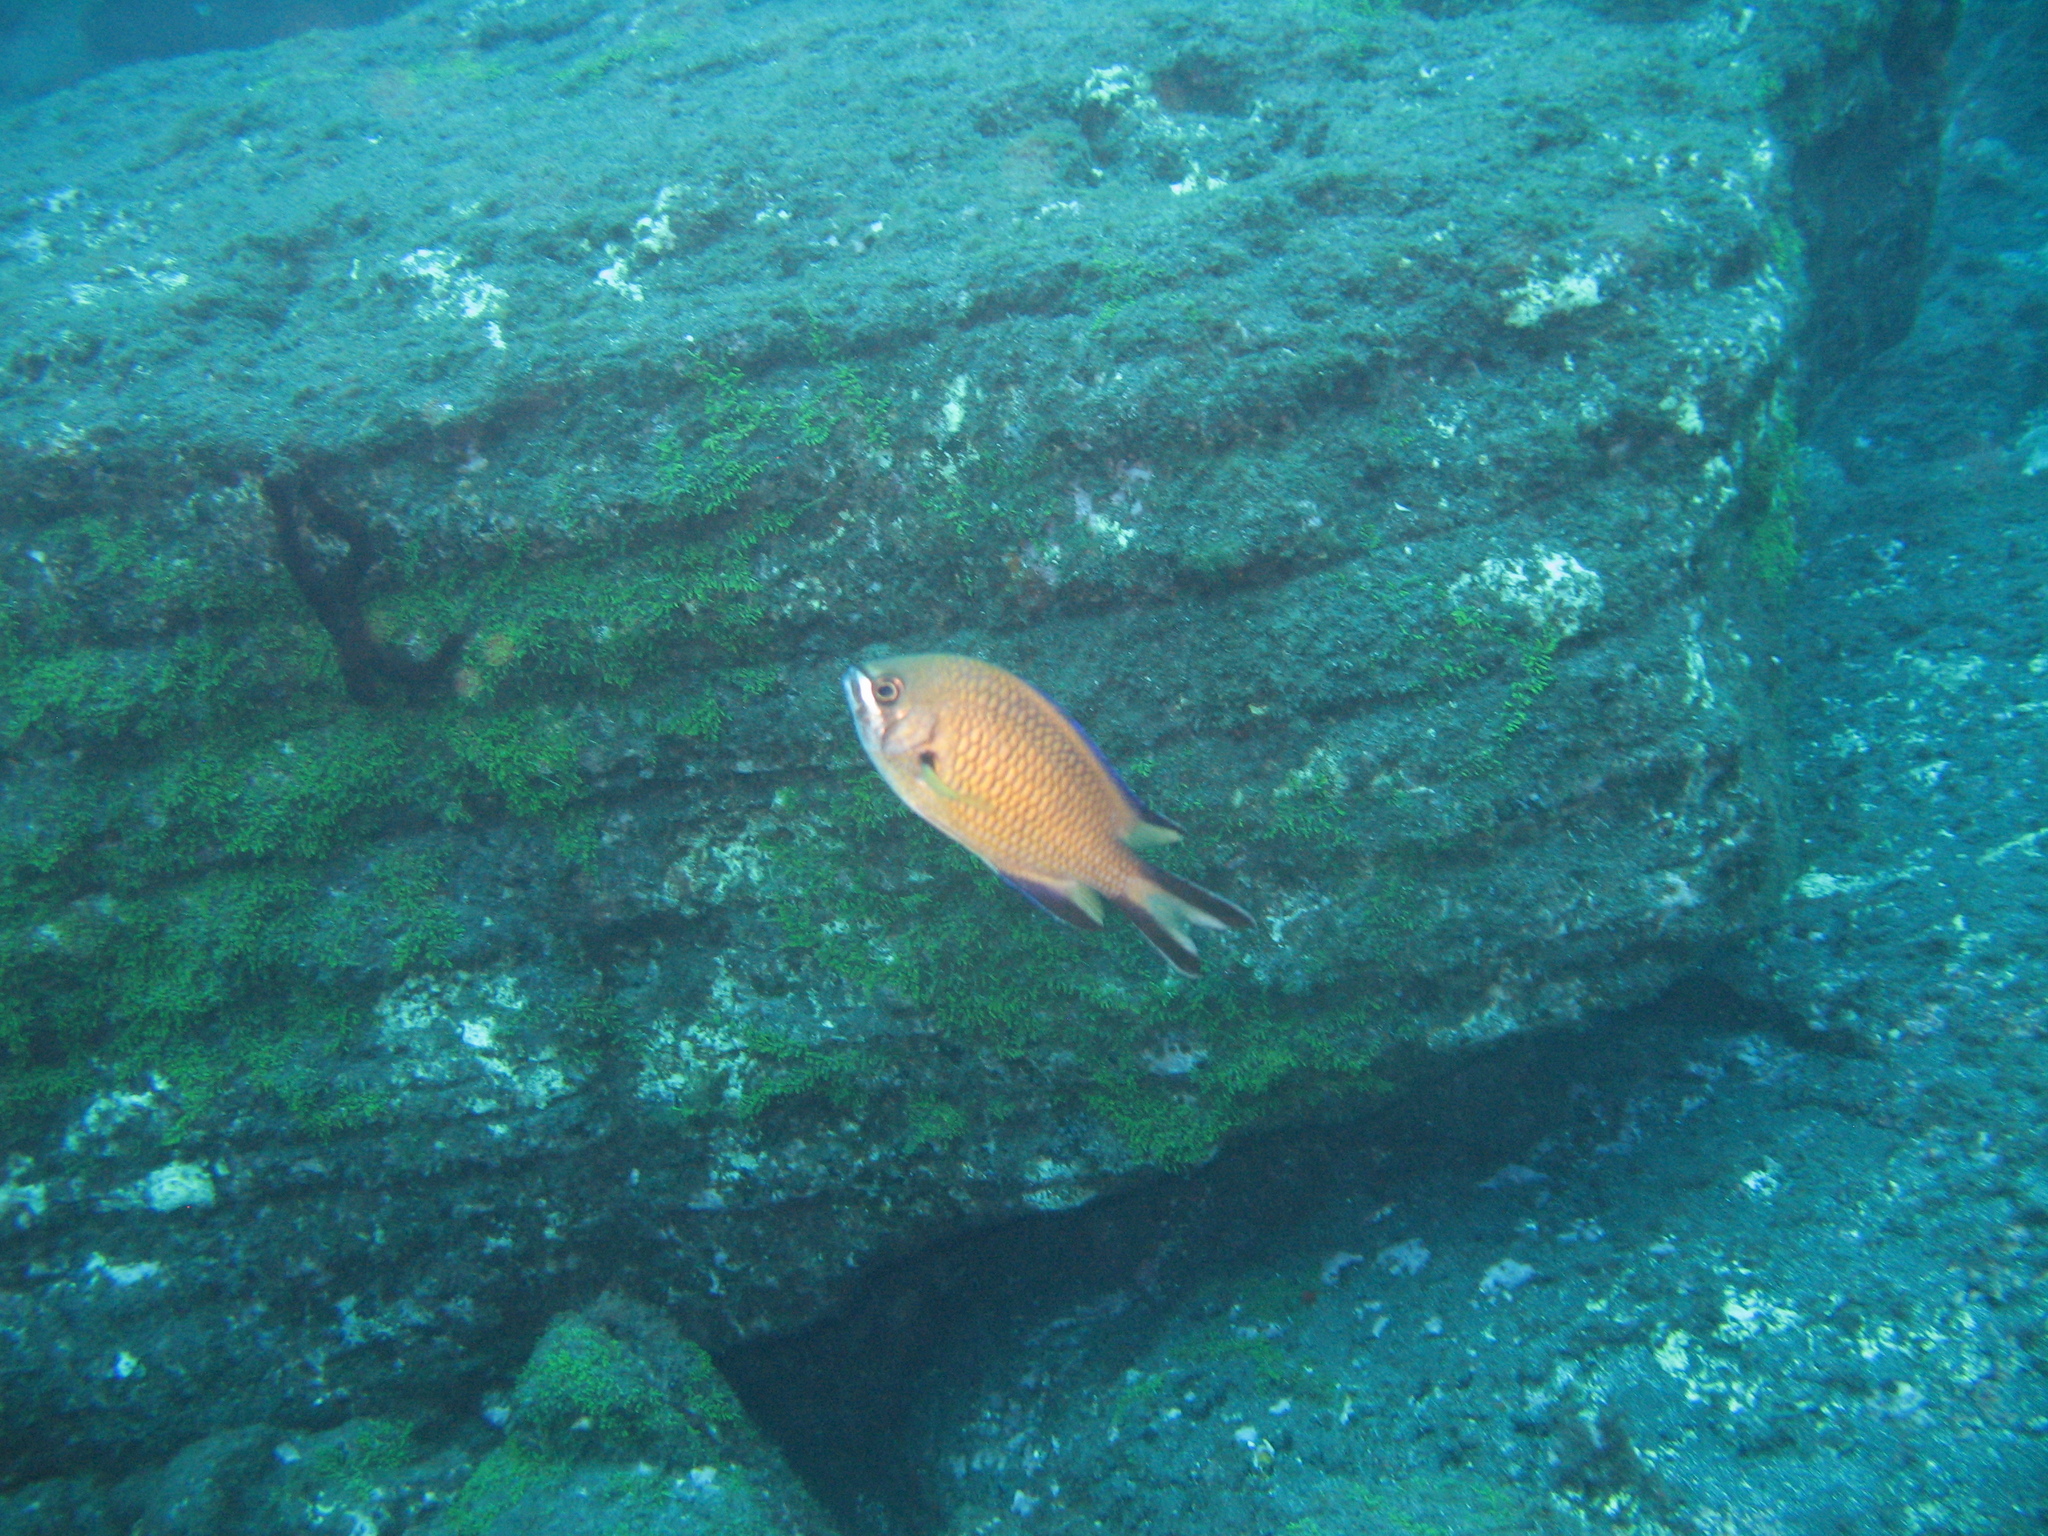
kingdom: Animalia
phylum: Chordata
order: Perciformes
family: Pomacentridae
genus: Chromis
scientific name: Chromis limbata
